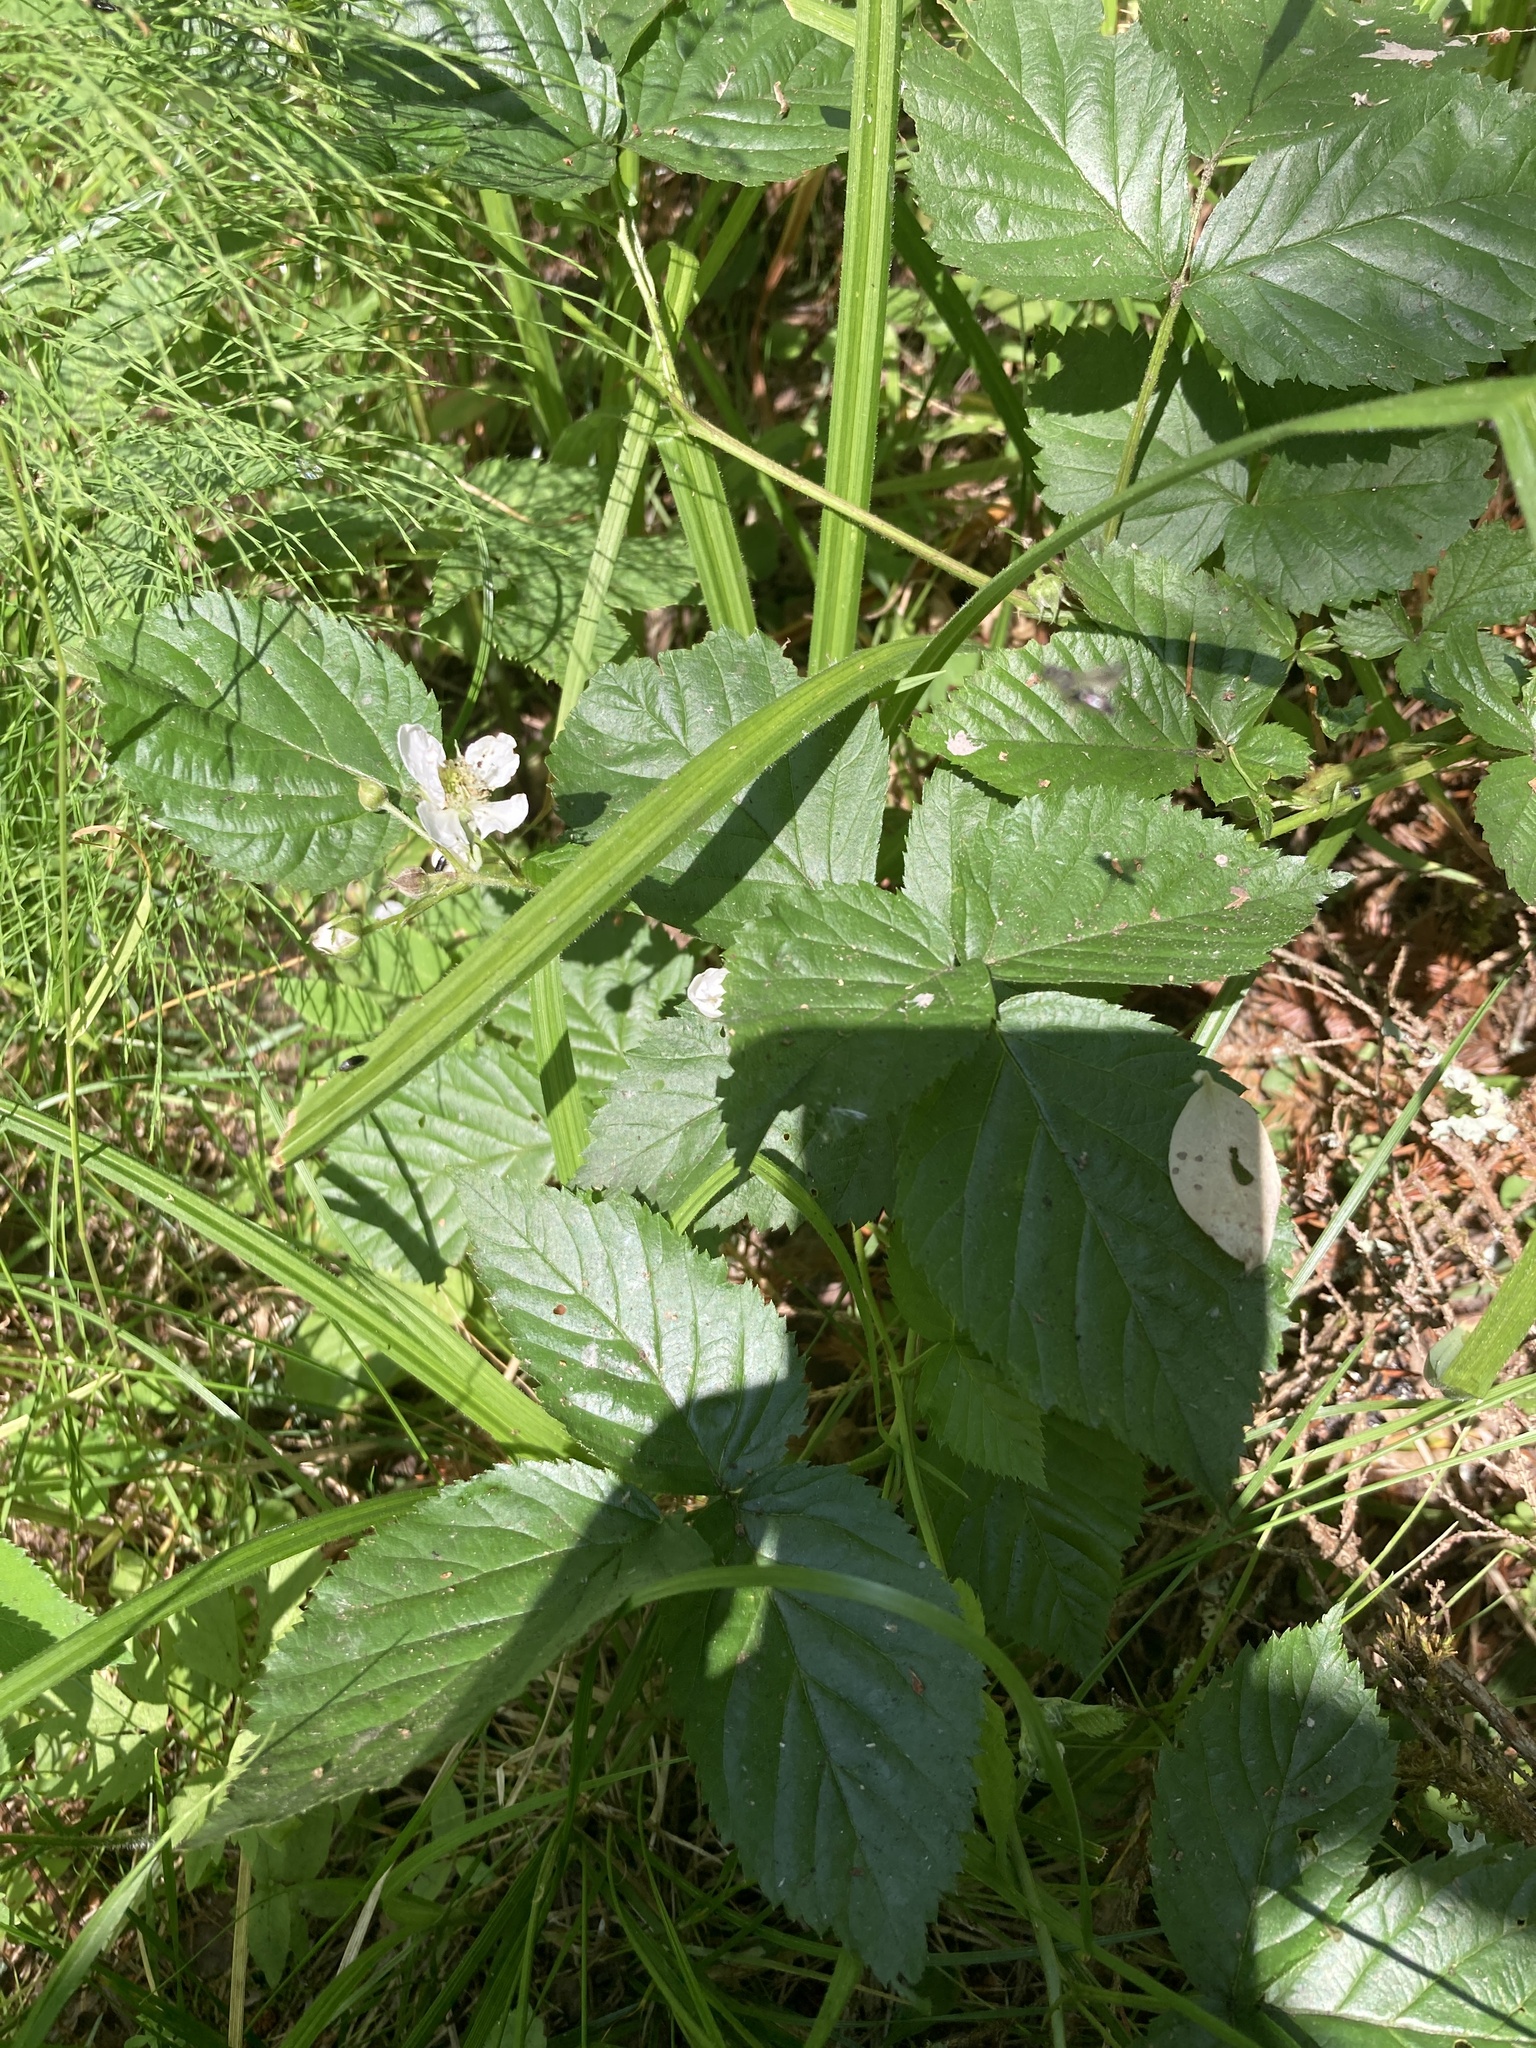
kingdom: Plantae
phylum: Tracheophyta
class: Magnoliopsida
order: Rosales
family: Rosaceae
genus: Rubus
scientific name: Rubus polonicus
